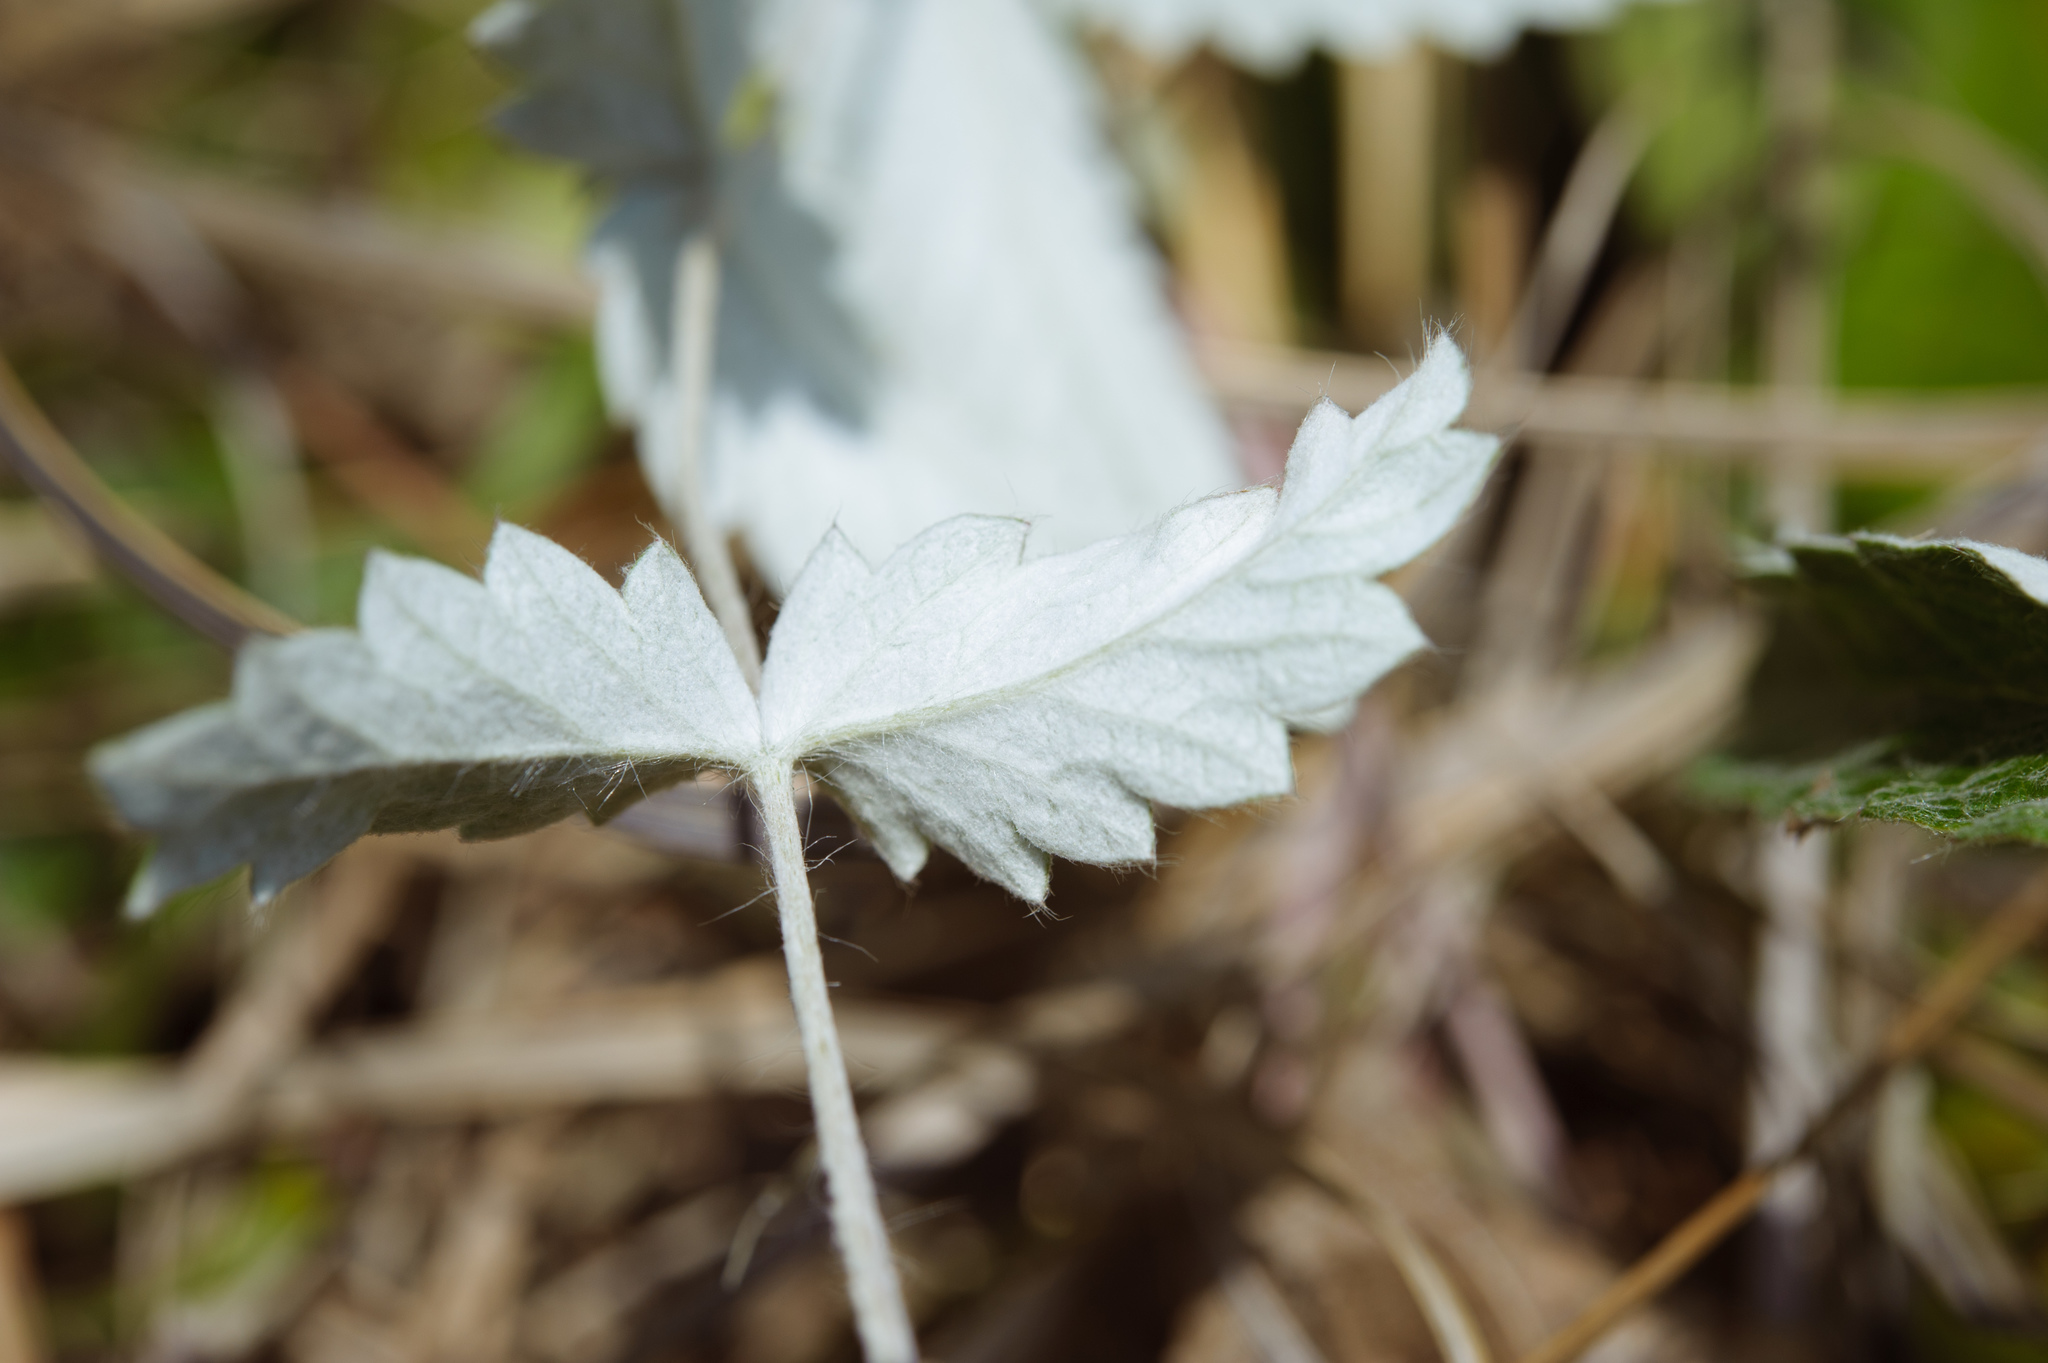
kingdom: Plantae
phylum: Tracheophyta
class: Magnoliopsida
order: Rosales
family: Rosaceae
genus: Potentilla
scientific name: Potentilla discolor
